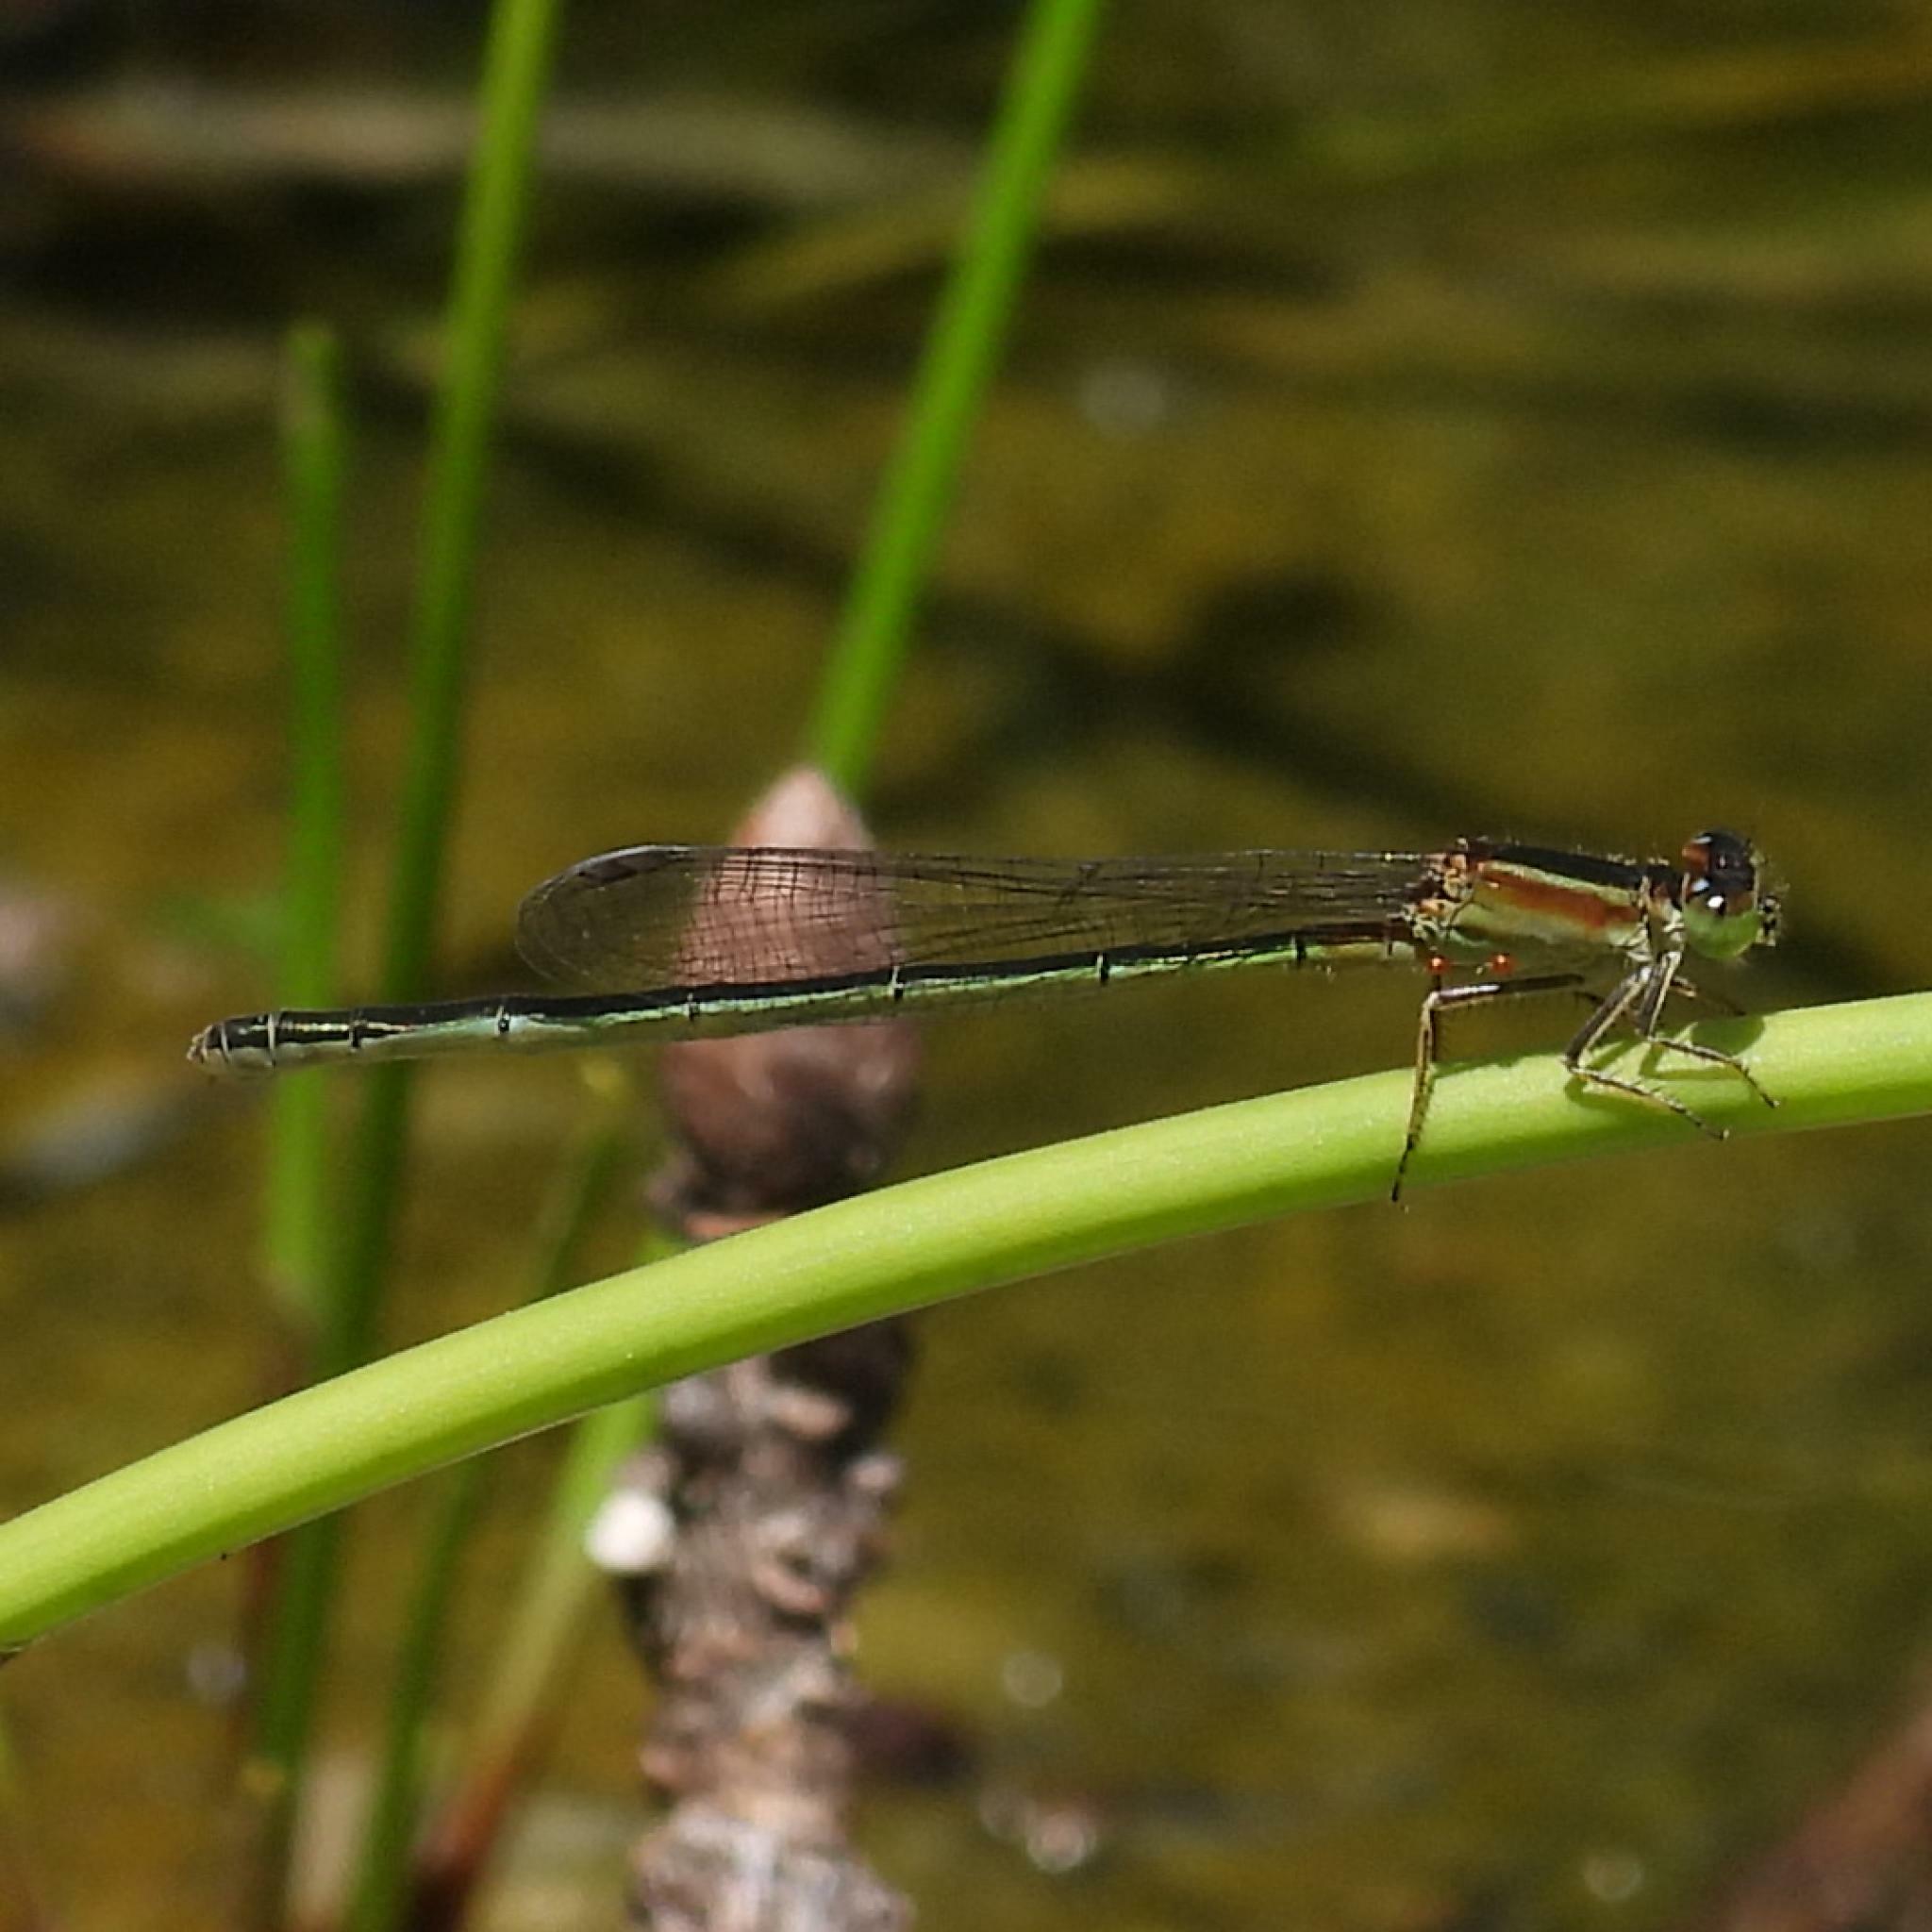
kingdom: Animalia
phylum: Arthropoda
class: Insecta
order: Odonata
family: Coenagrionidae
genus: Ischnura
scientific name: Ischnura senegalensis
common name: Tropical bluetail
